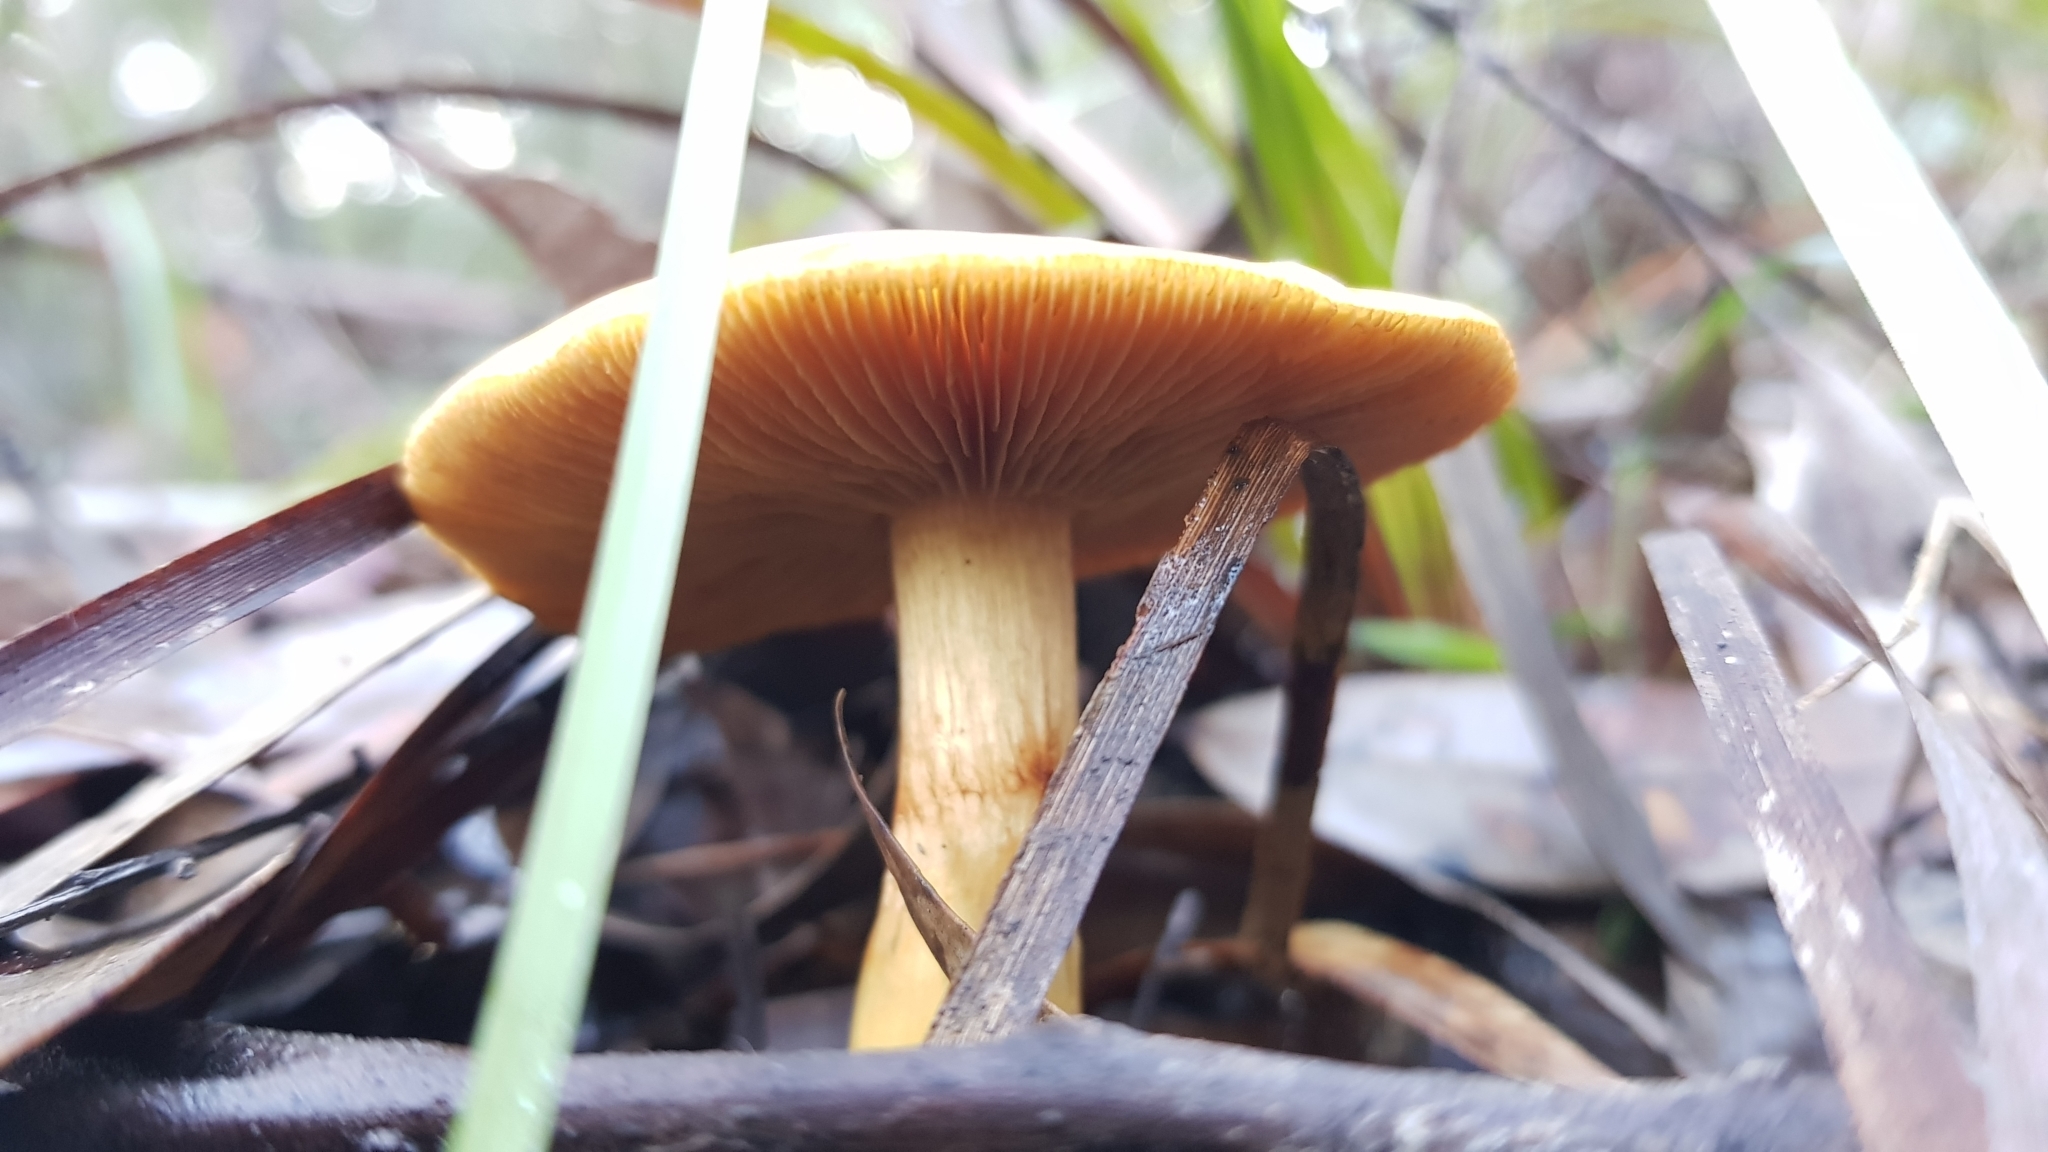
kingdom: Fungi
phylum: Basidiomycota
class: Agaricomycetes
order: Agaricales
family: Cortinariaceae
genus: Cortinarius
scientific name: Cortinarius sinapicolor
